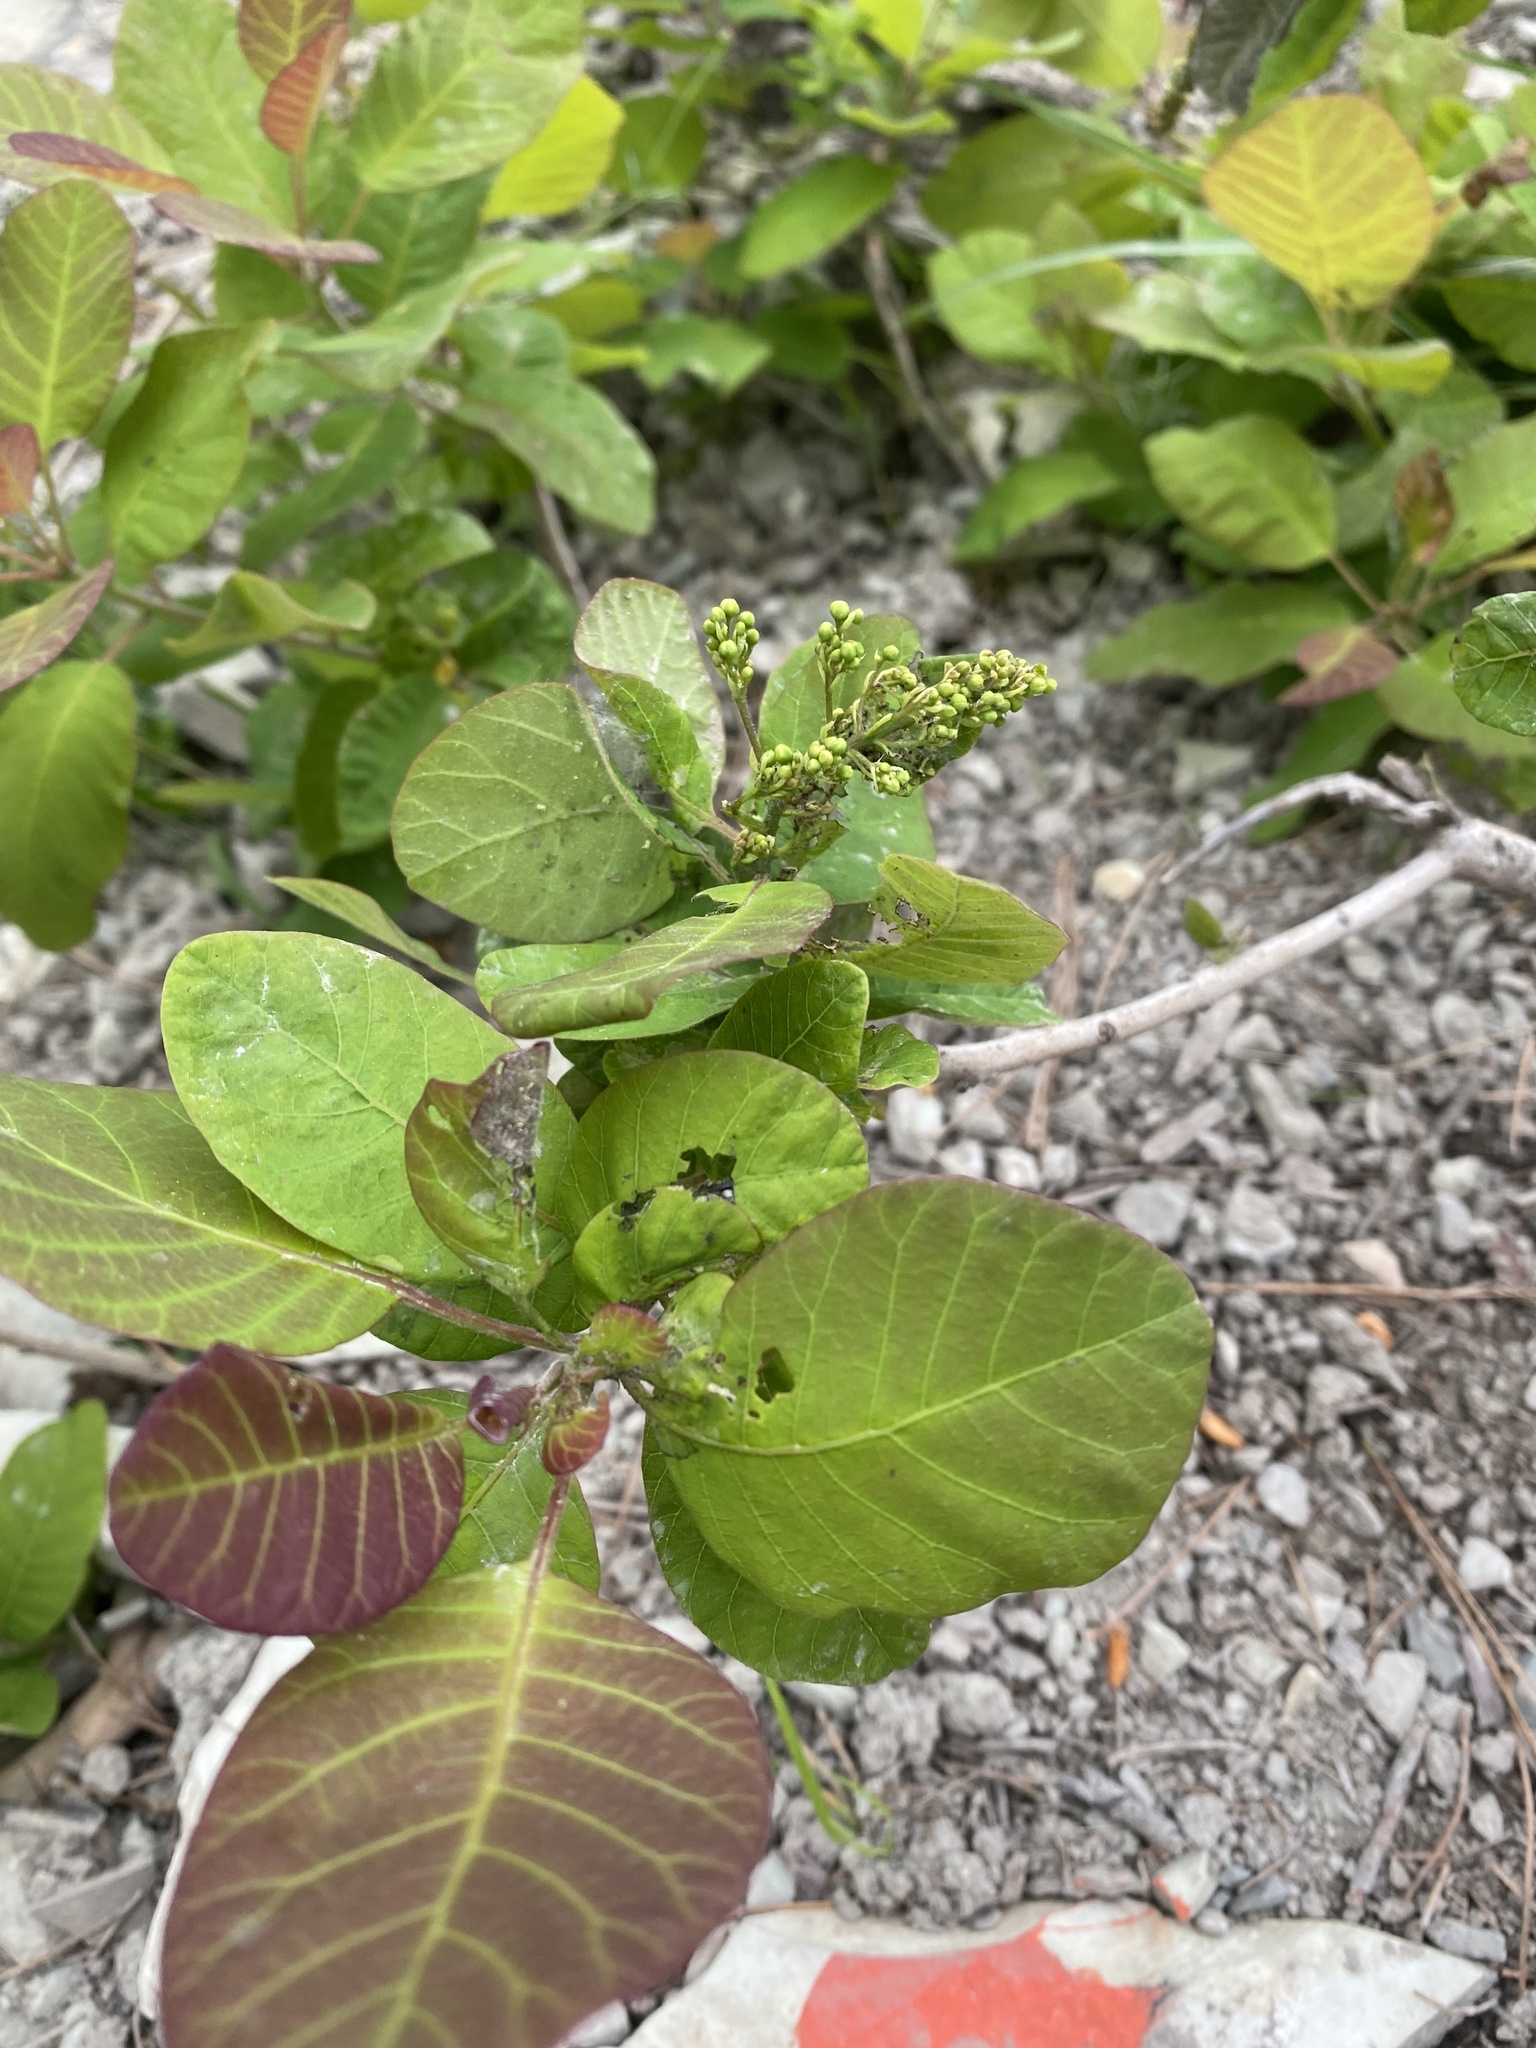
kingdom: Plantae
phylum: Tracheophyta
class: Magnoliopsida
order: Sapindales
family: Anacardiaceae
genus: Cotinus
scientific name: Cotinus coggygria
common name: Smoke-tree
